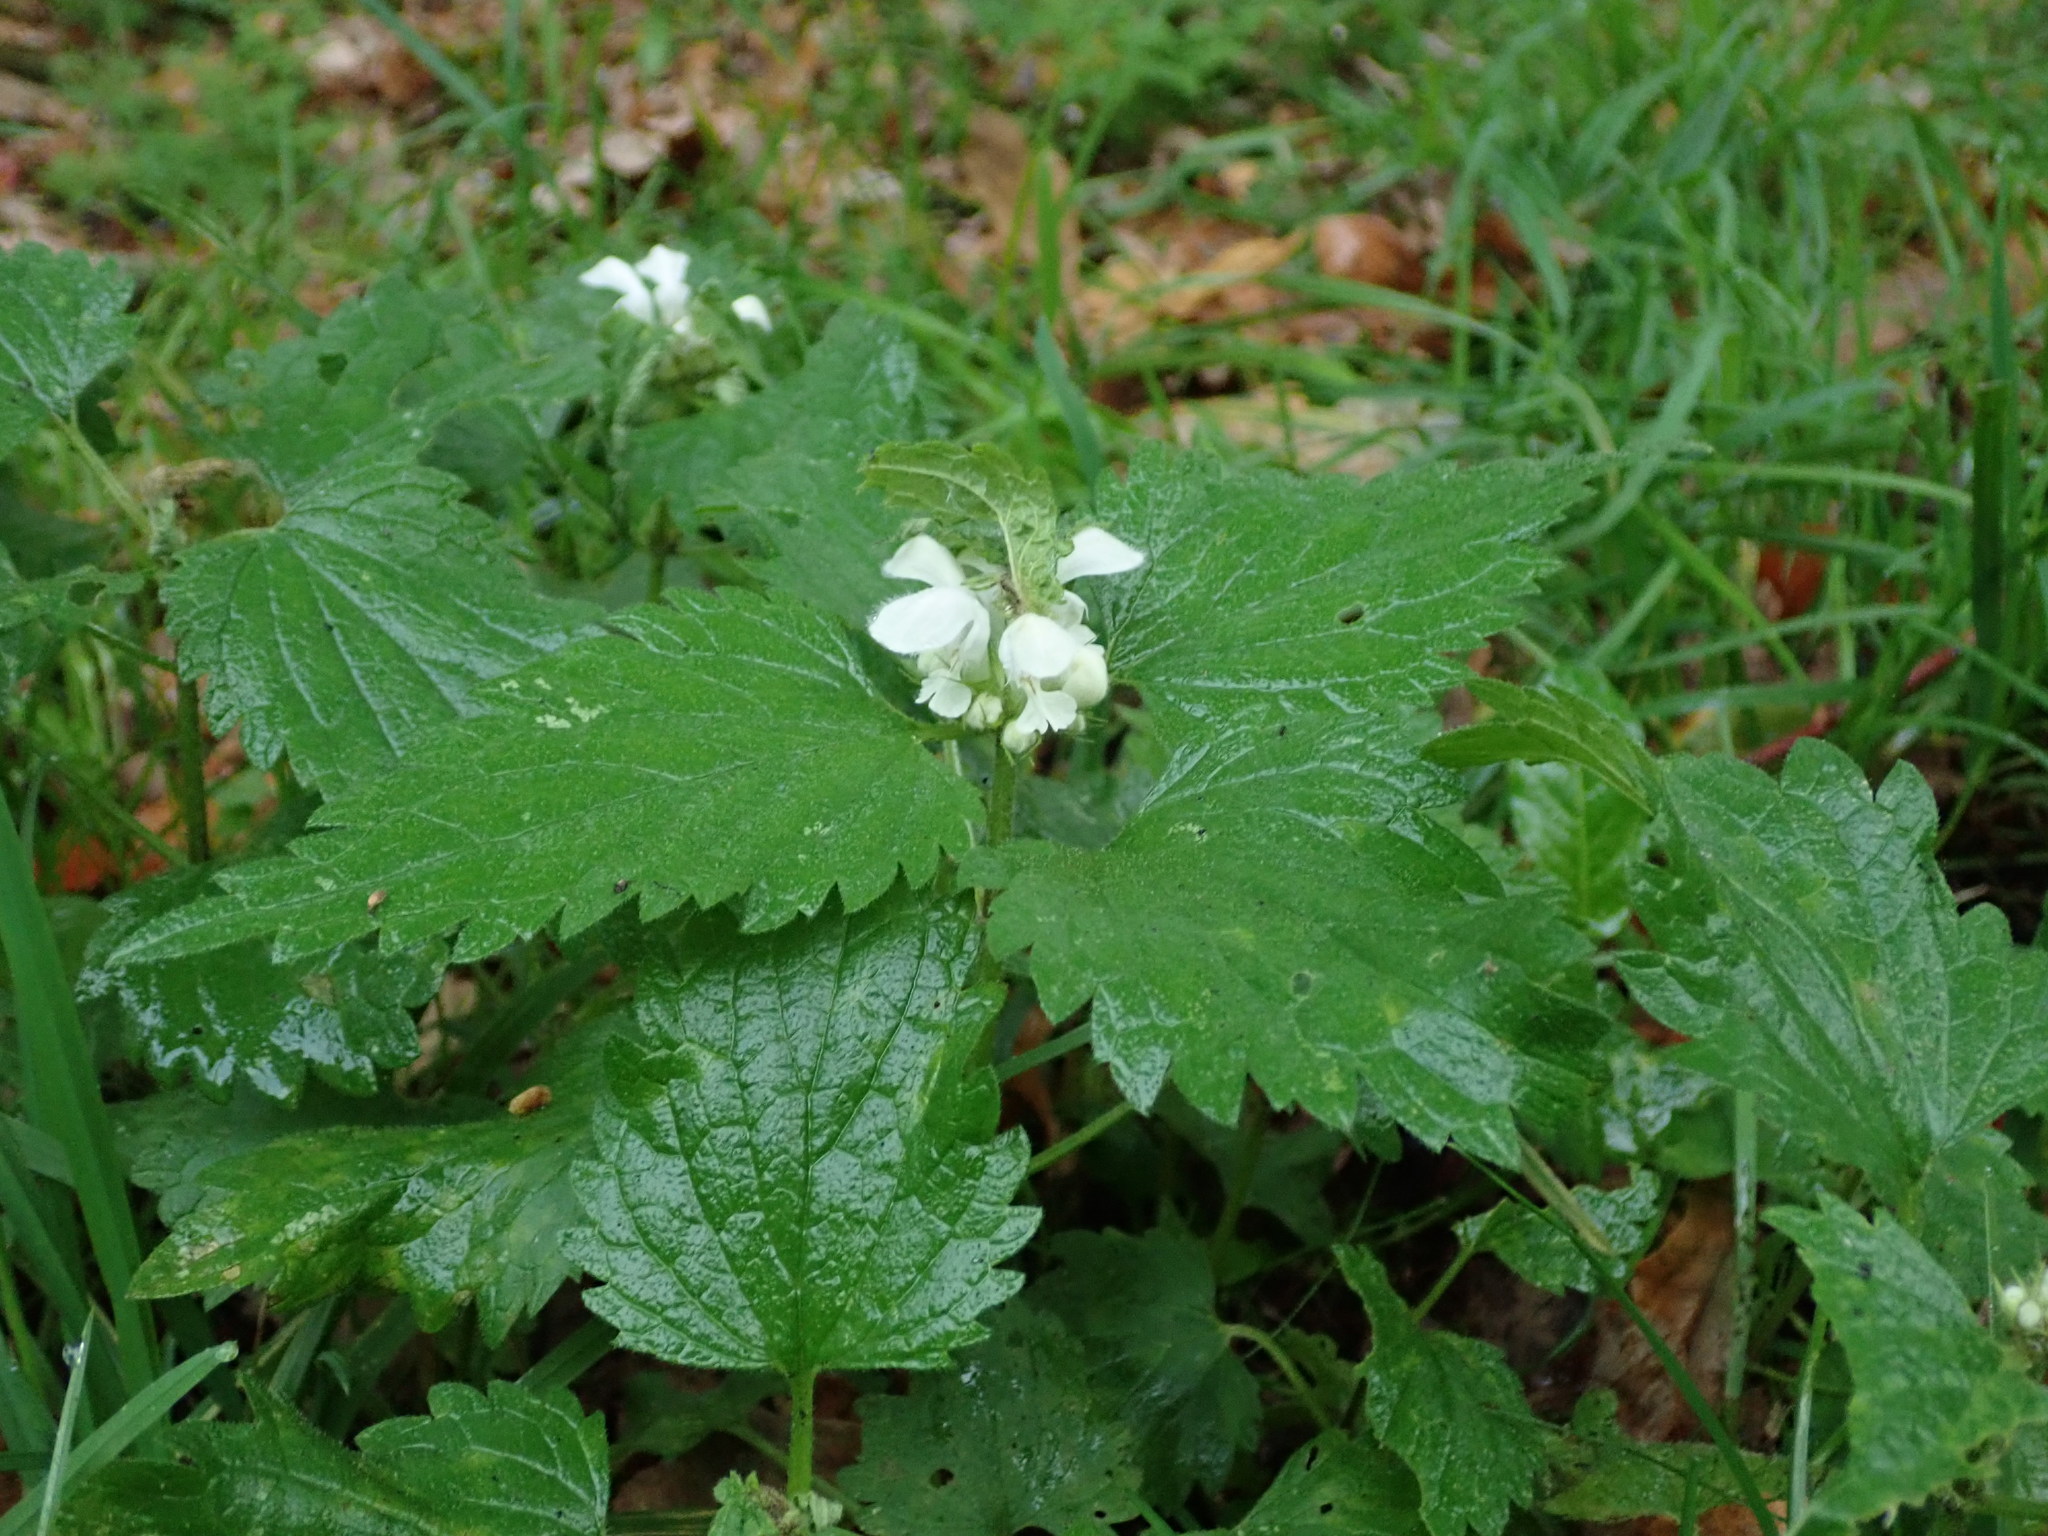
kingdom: Plantae
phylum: Tracheophyta
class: Magnoliopsida
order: Lamiales
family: Lamiaceae
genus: Lamium
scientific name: Lamium album
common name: White dead-nettle
